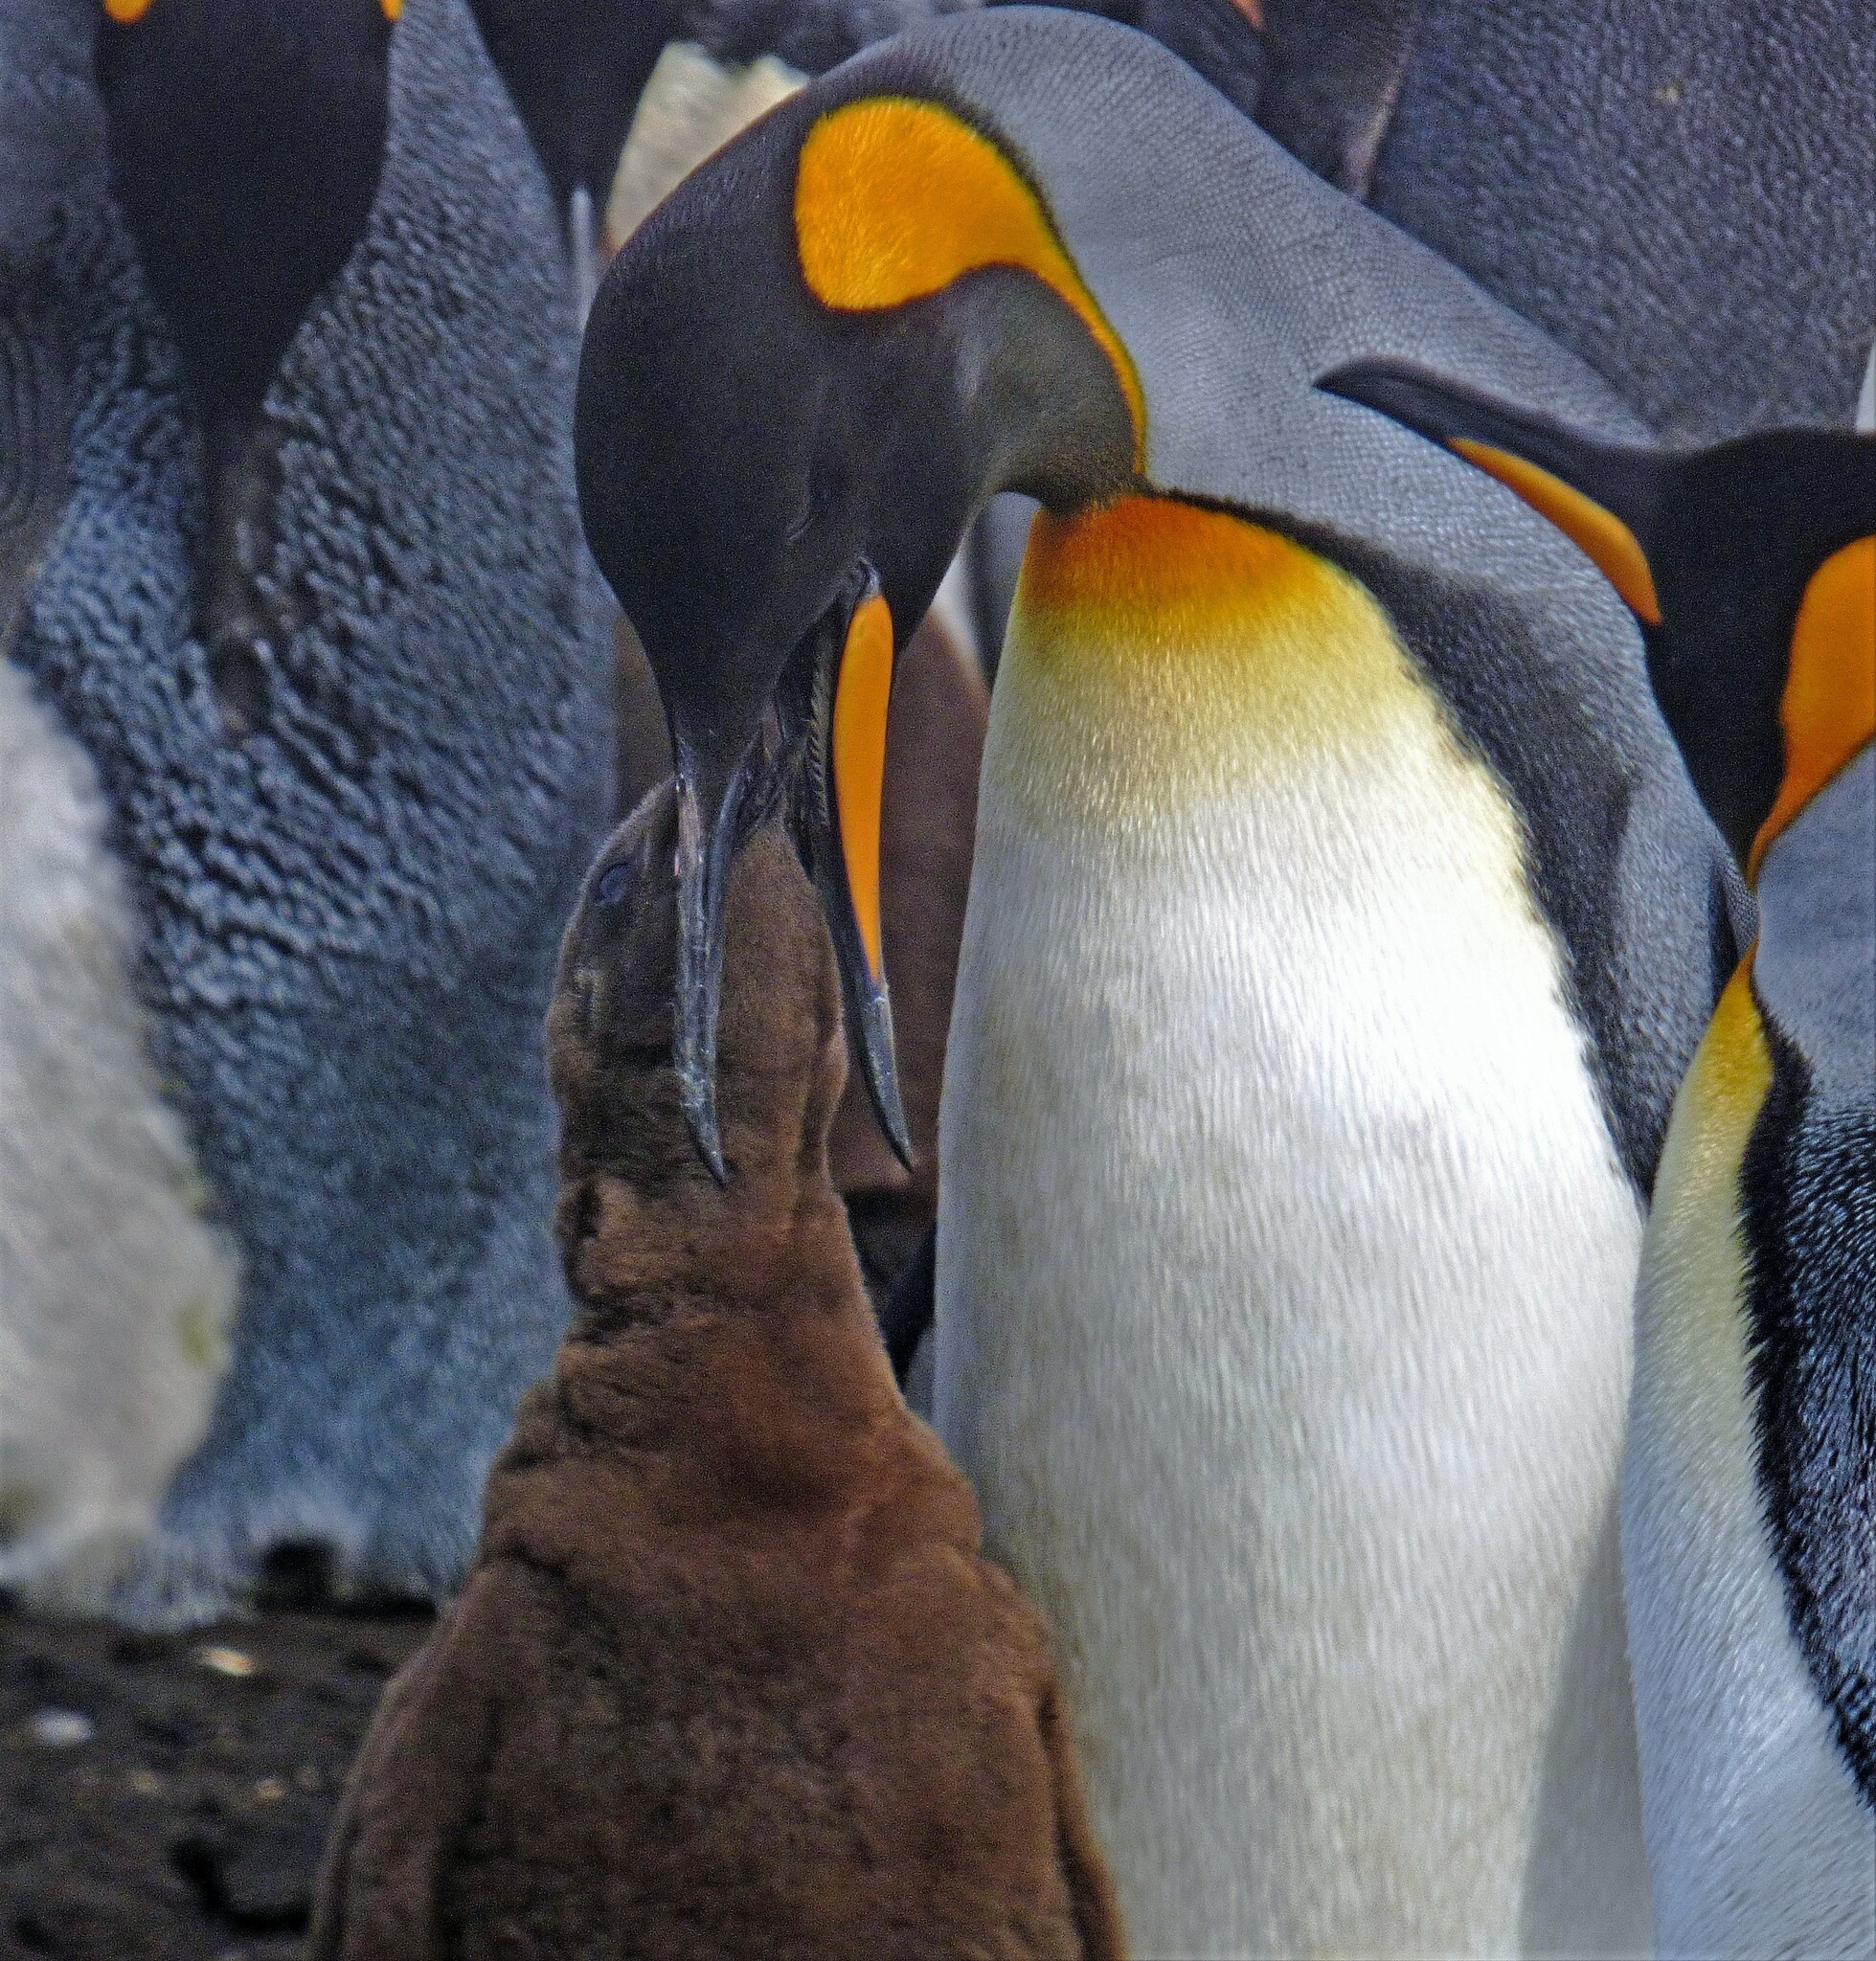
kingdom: Animalia
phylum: Chordata
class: Aves
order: Sphenisciformes
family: Spheniscidae
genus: Aptenodytes
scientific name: Aptenodytes patagonicus
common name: King penguin
